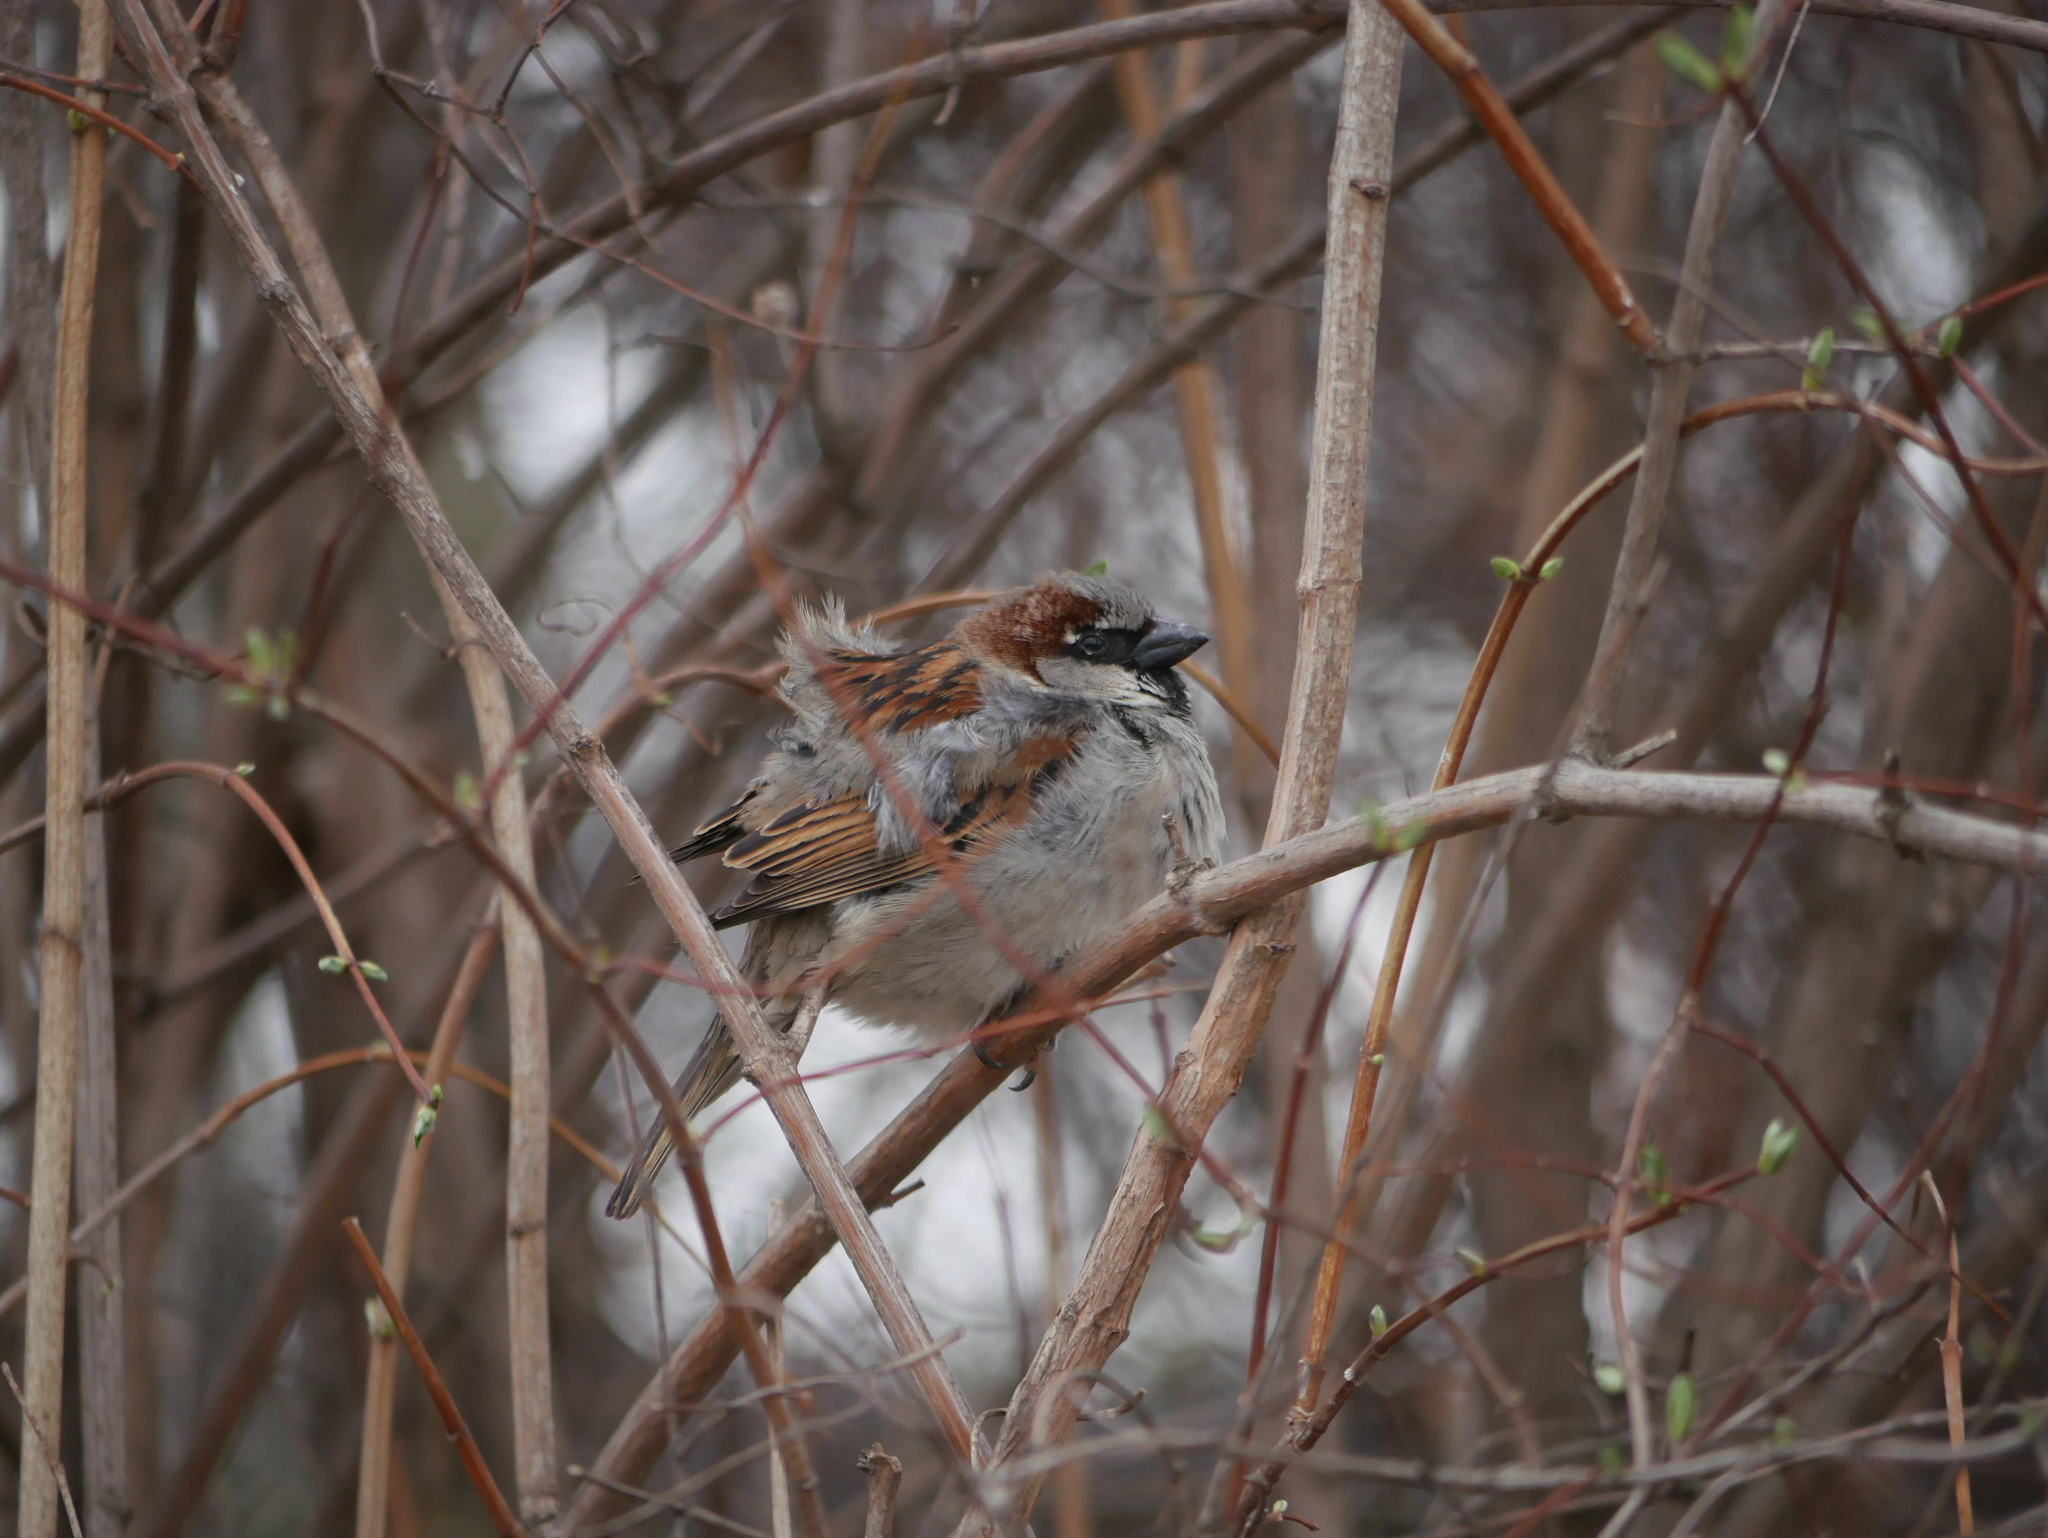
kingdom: Animalia
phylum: Chordata
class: Aves
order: Passeriformes
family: Passeridae
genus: Passer
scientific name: Passer domesticus
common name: House sparrow
